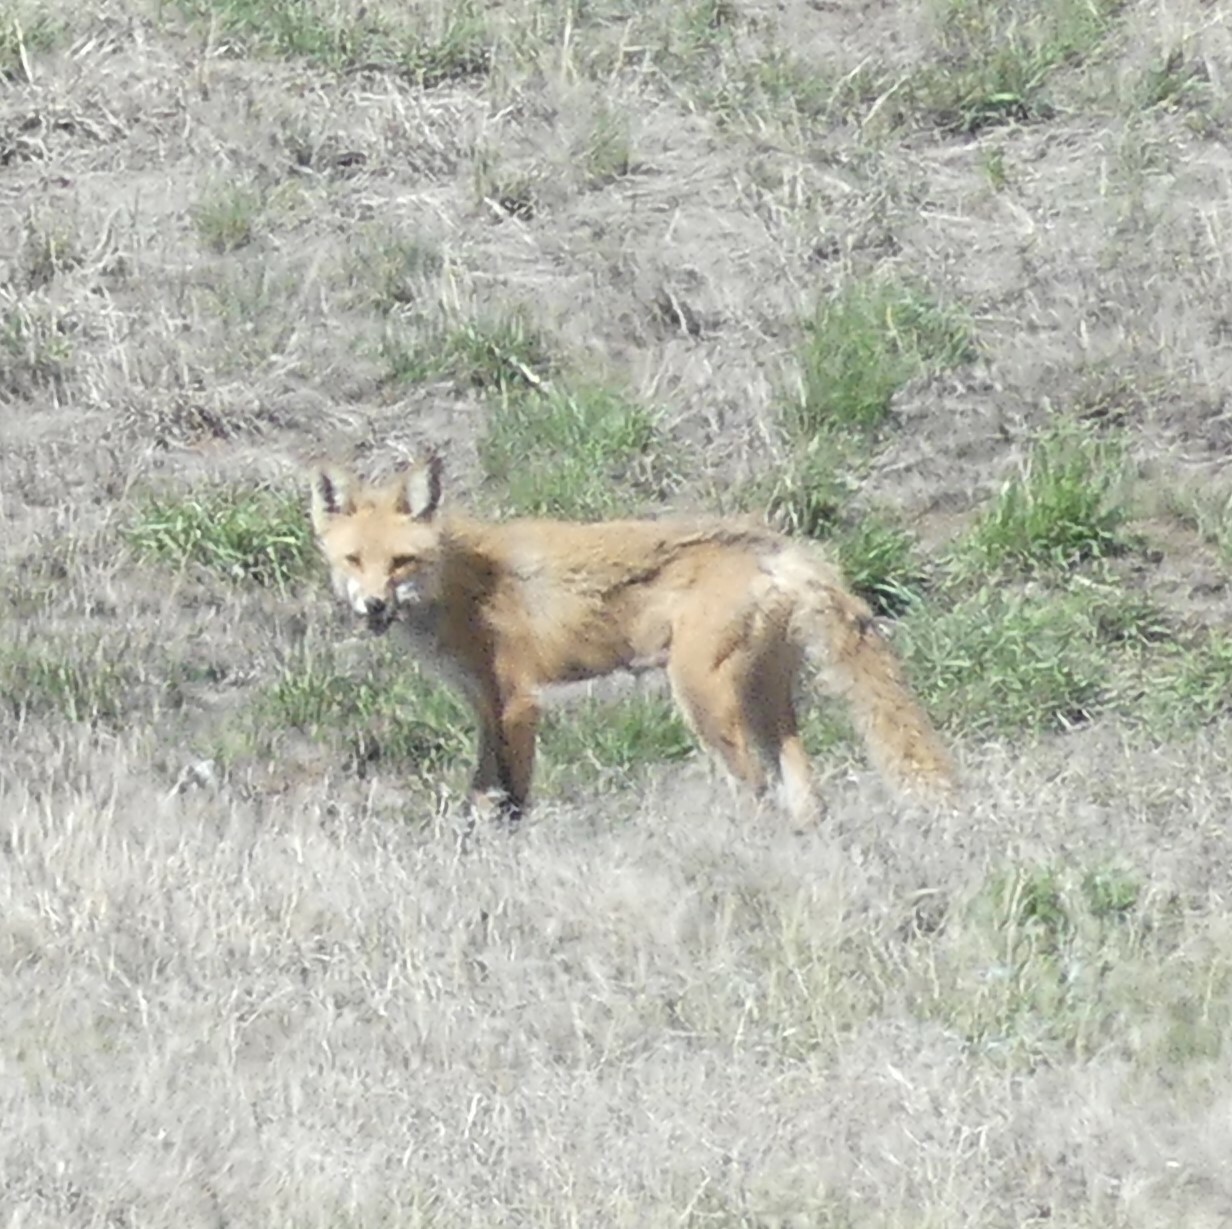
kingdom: Animalia
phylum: Chordata
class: Mammalia
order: Carnivora
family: Canidae
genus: Vulpes
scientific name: Vulpes vulpes
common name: Red fox
